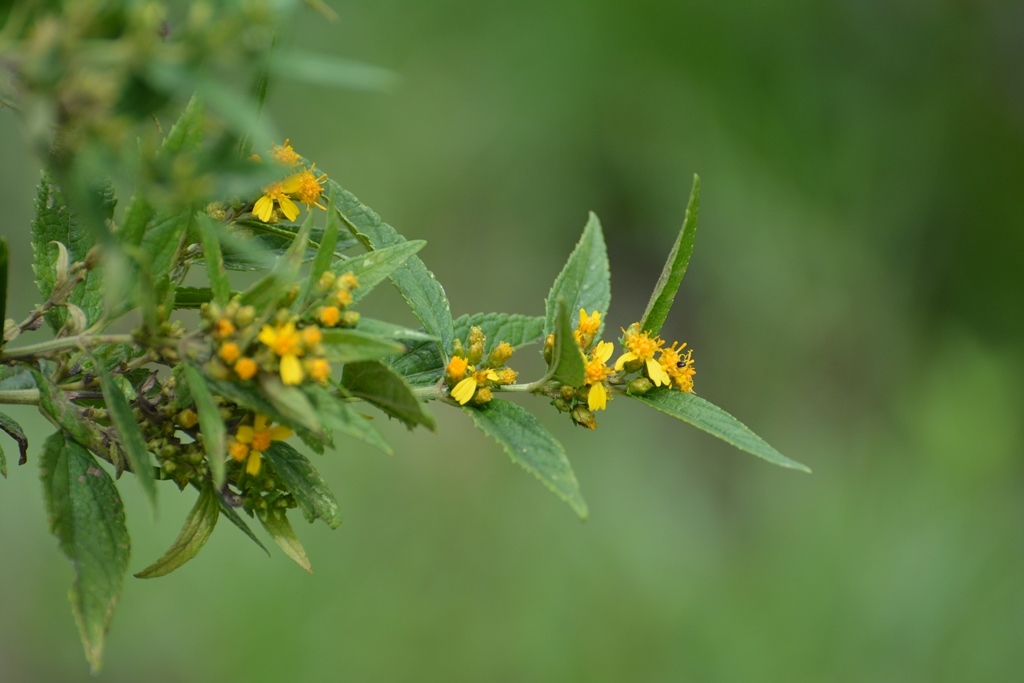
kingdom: Plantae
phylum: Tracheophyta
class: Magnoliopsida
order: Asterales
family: Asteraceae
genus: Calea
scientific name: Calea urticifolia
